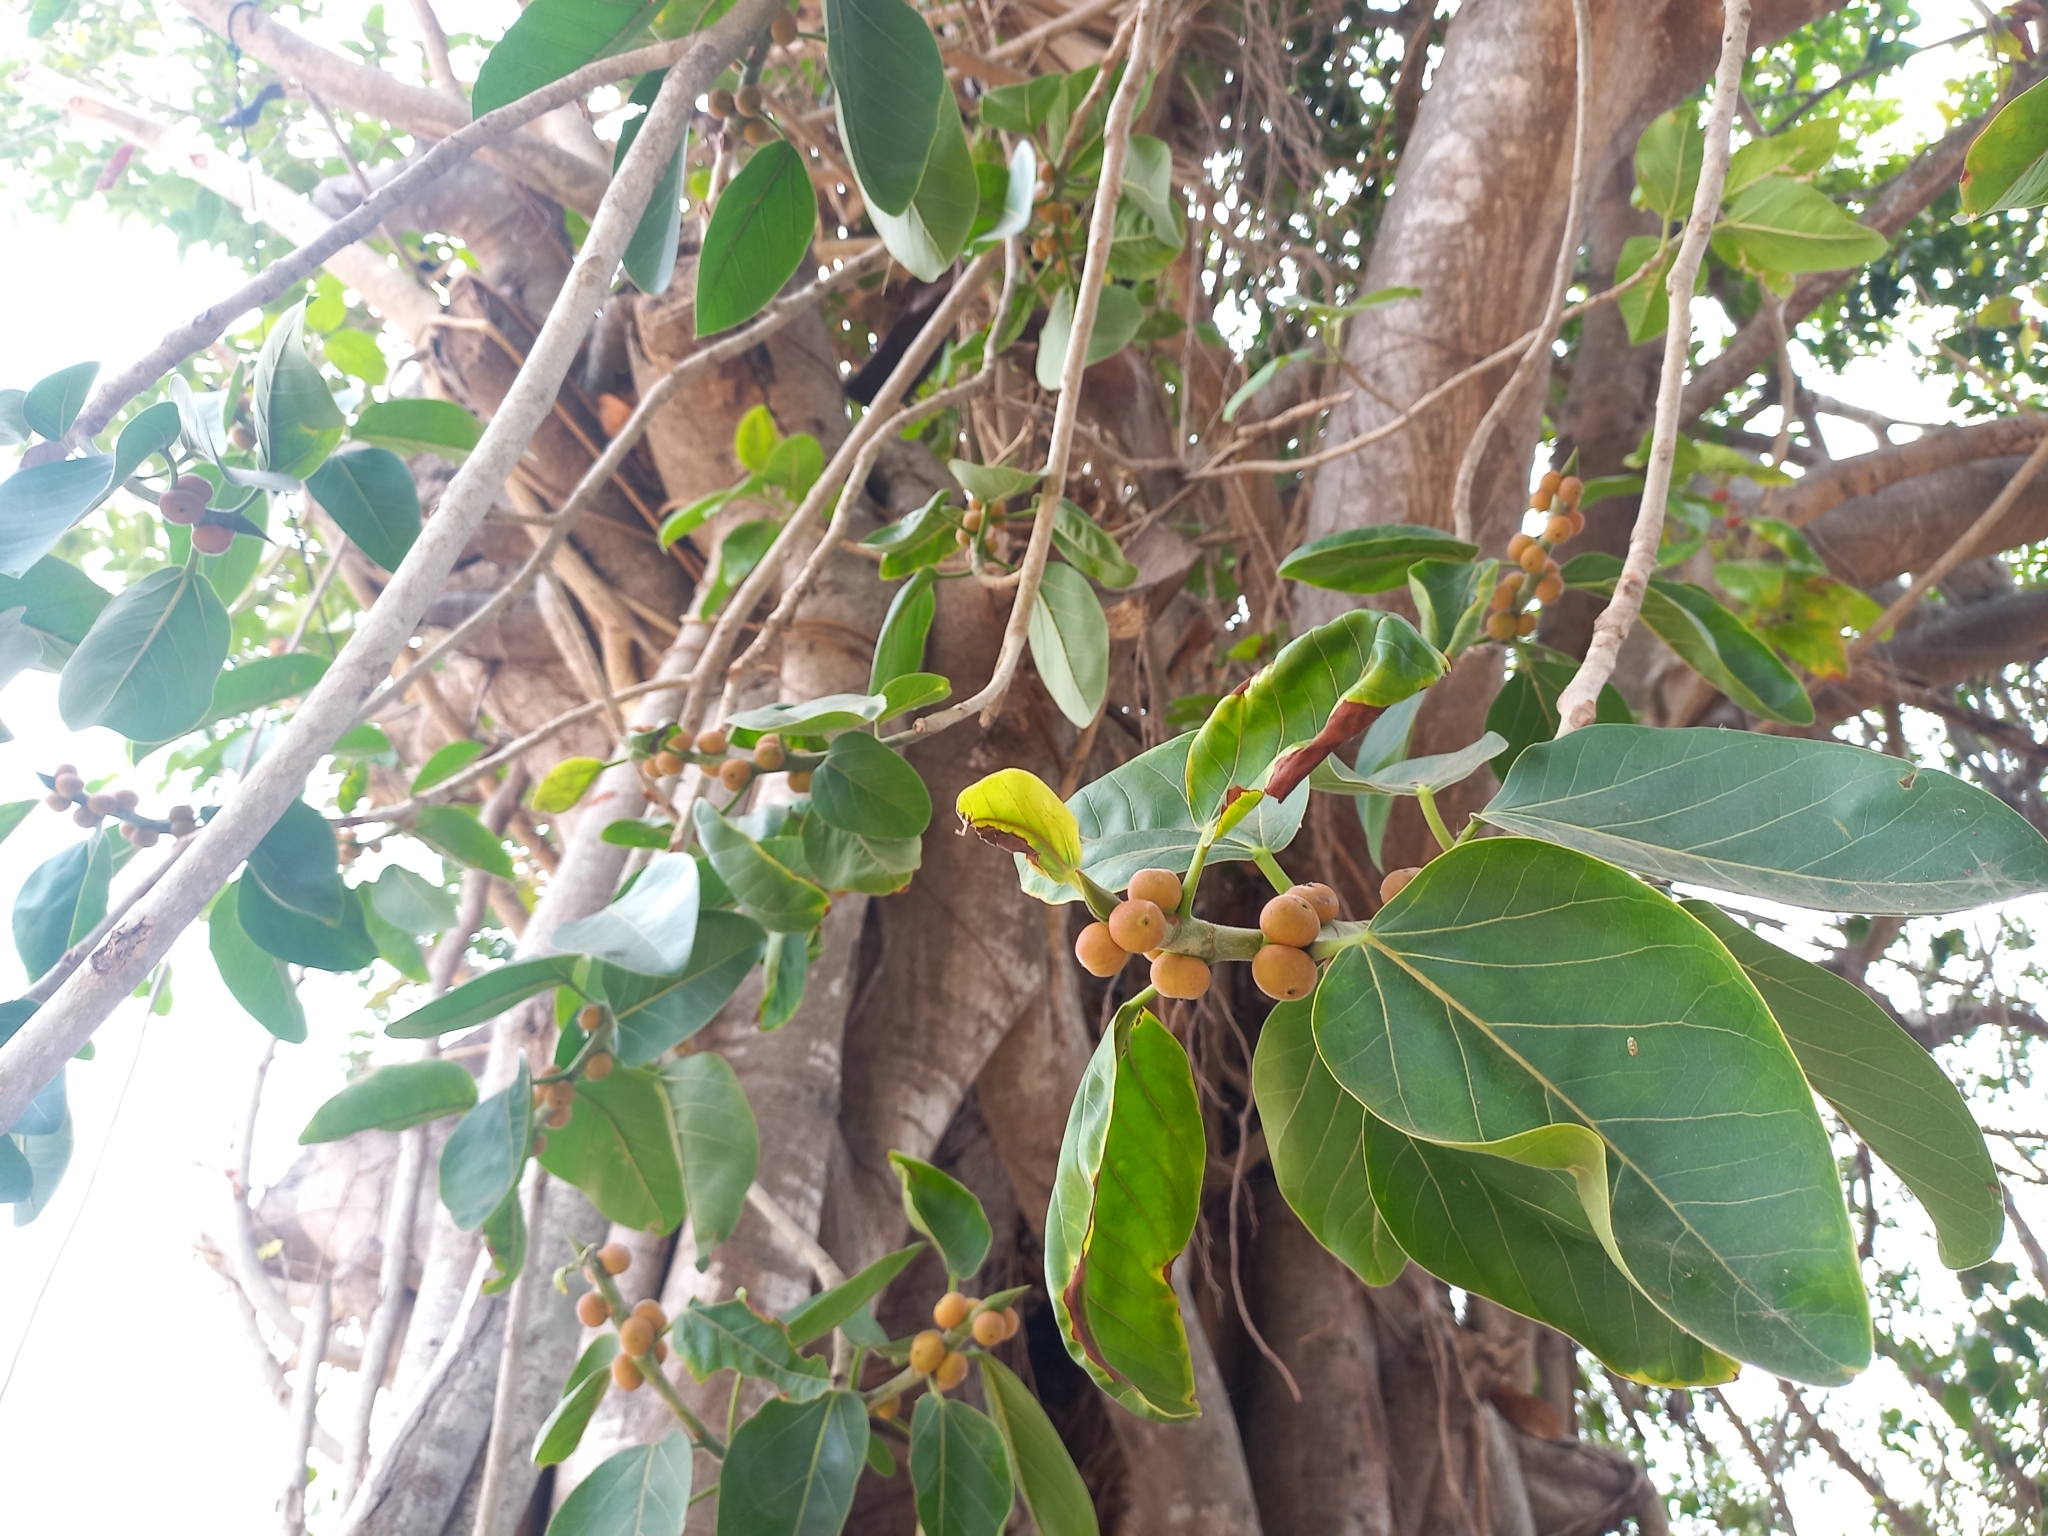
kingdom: Plantae
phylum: Tracheophyta
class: Magnoliopsida
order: Rosales
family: Moraceae
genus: Ficus
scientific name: Ficus benghalensis
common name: Indian banyan
